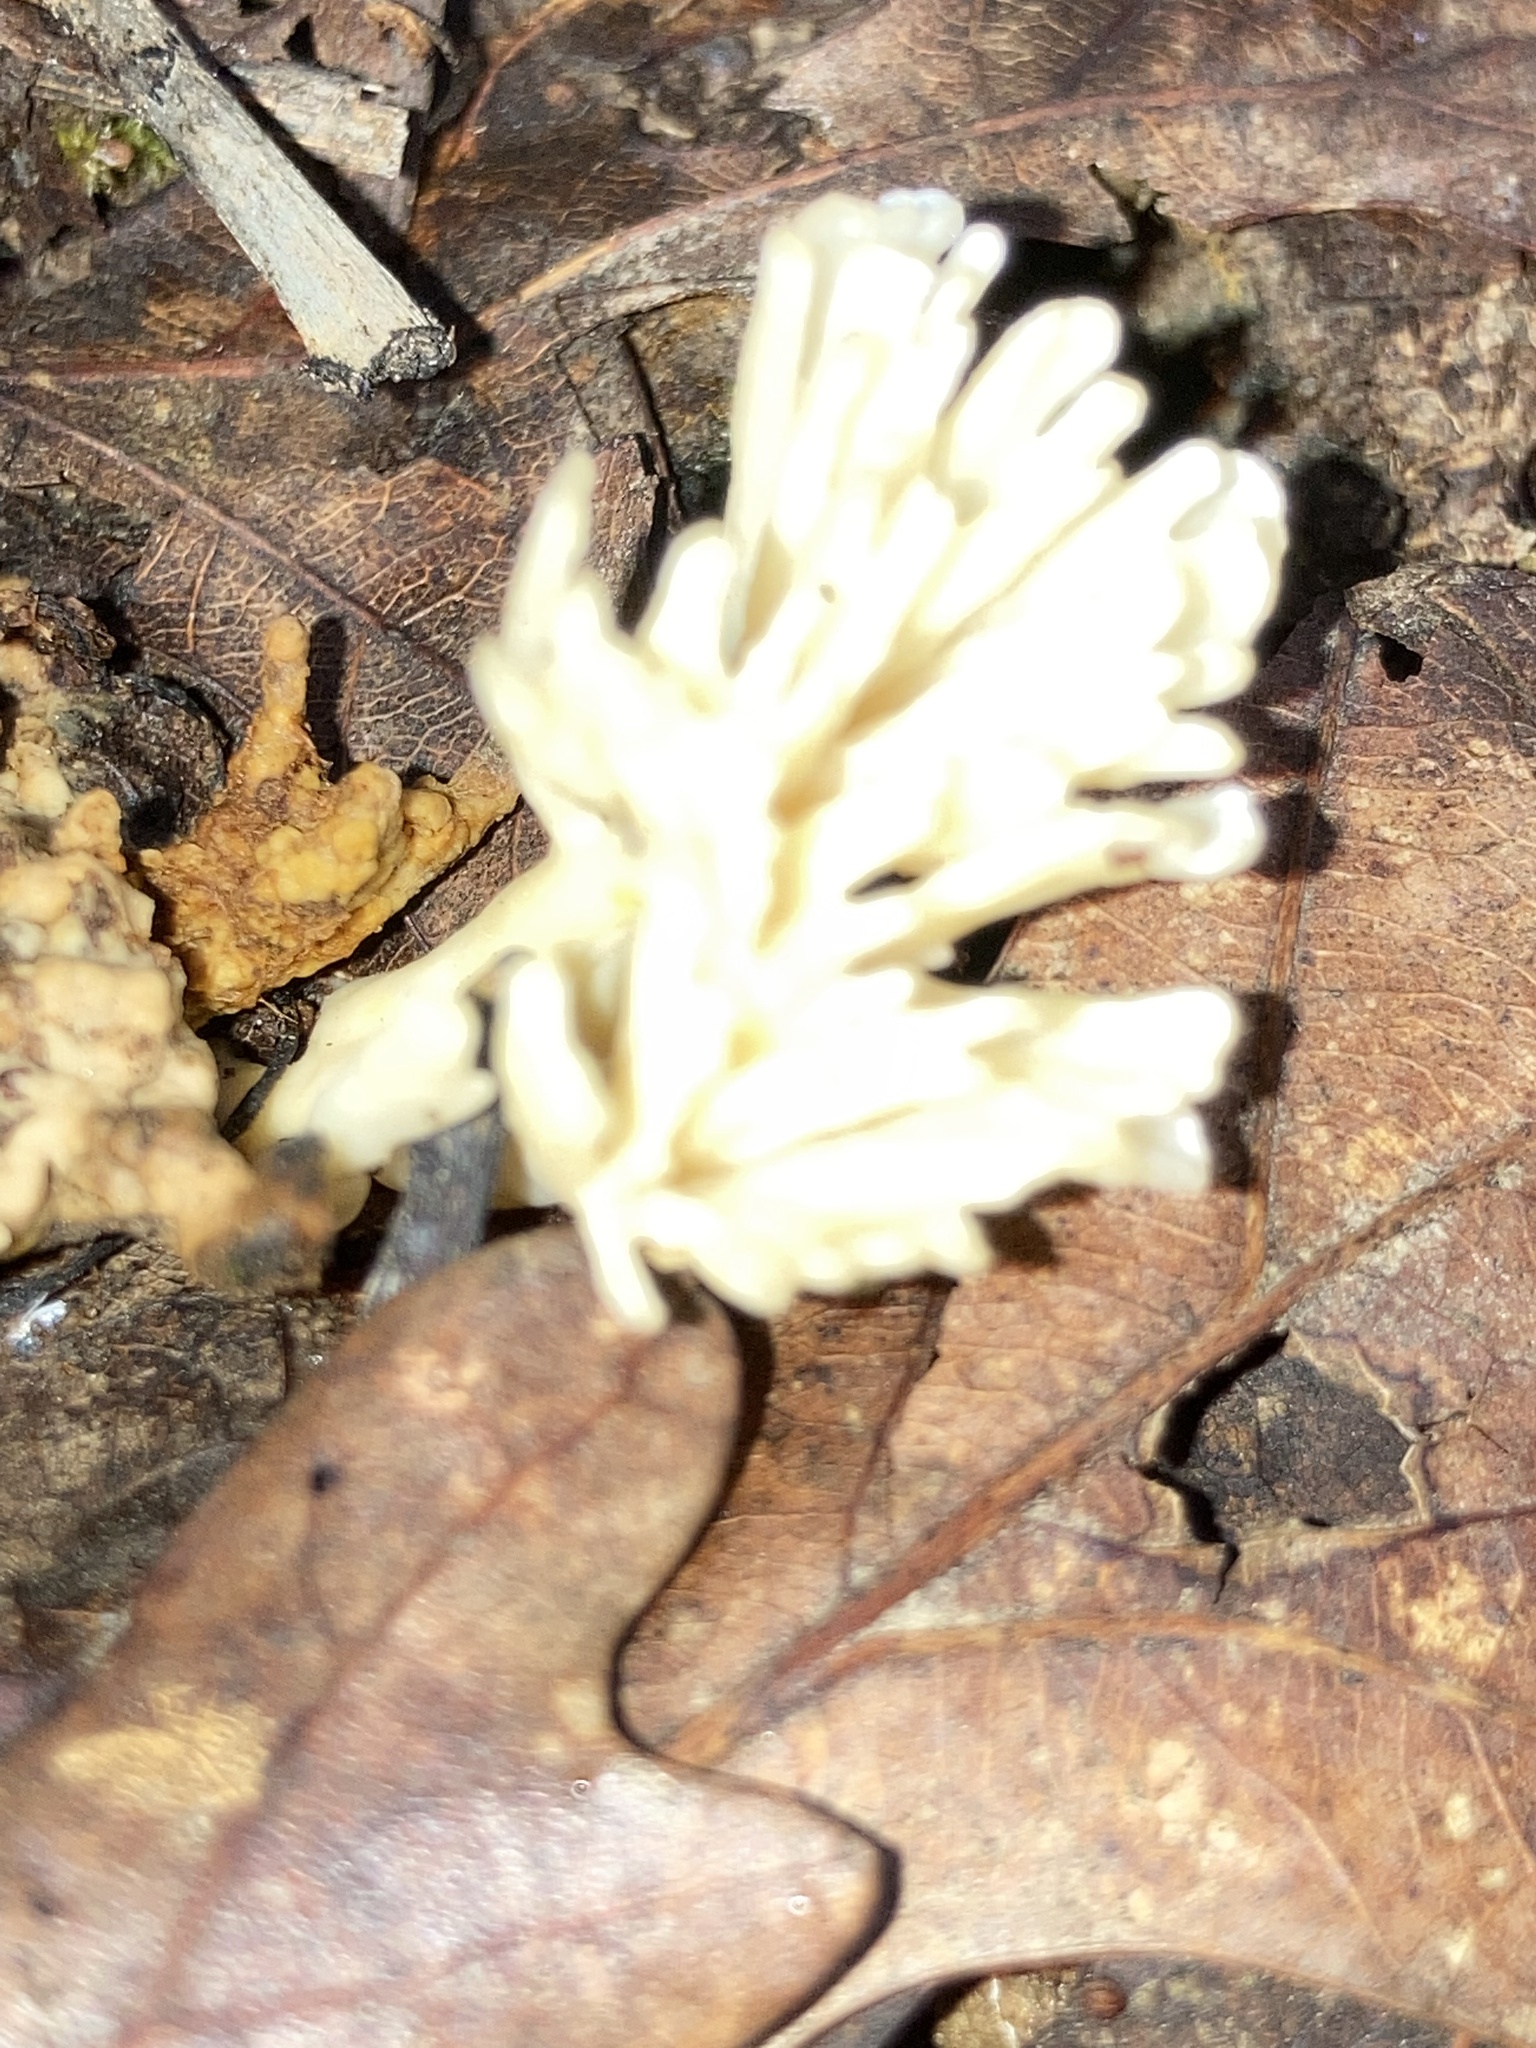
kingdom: Fungi
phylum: Basidiomycota
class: Agaricomycetes
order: Sebacinales
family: Sebacinaceae
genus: Sebacina
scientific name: Sebacina schweinitzii
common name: Jellied false coral fungus
